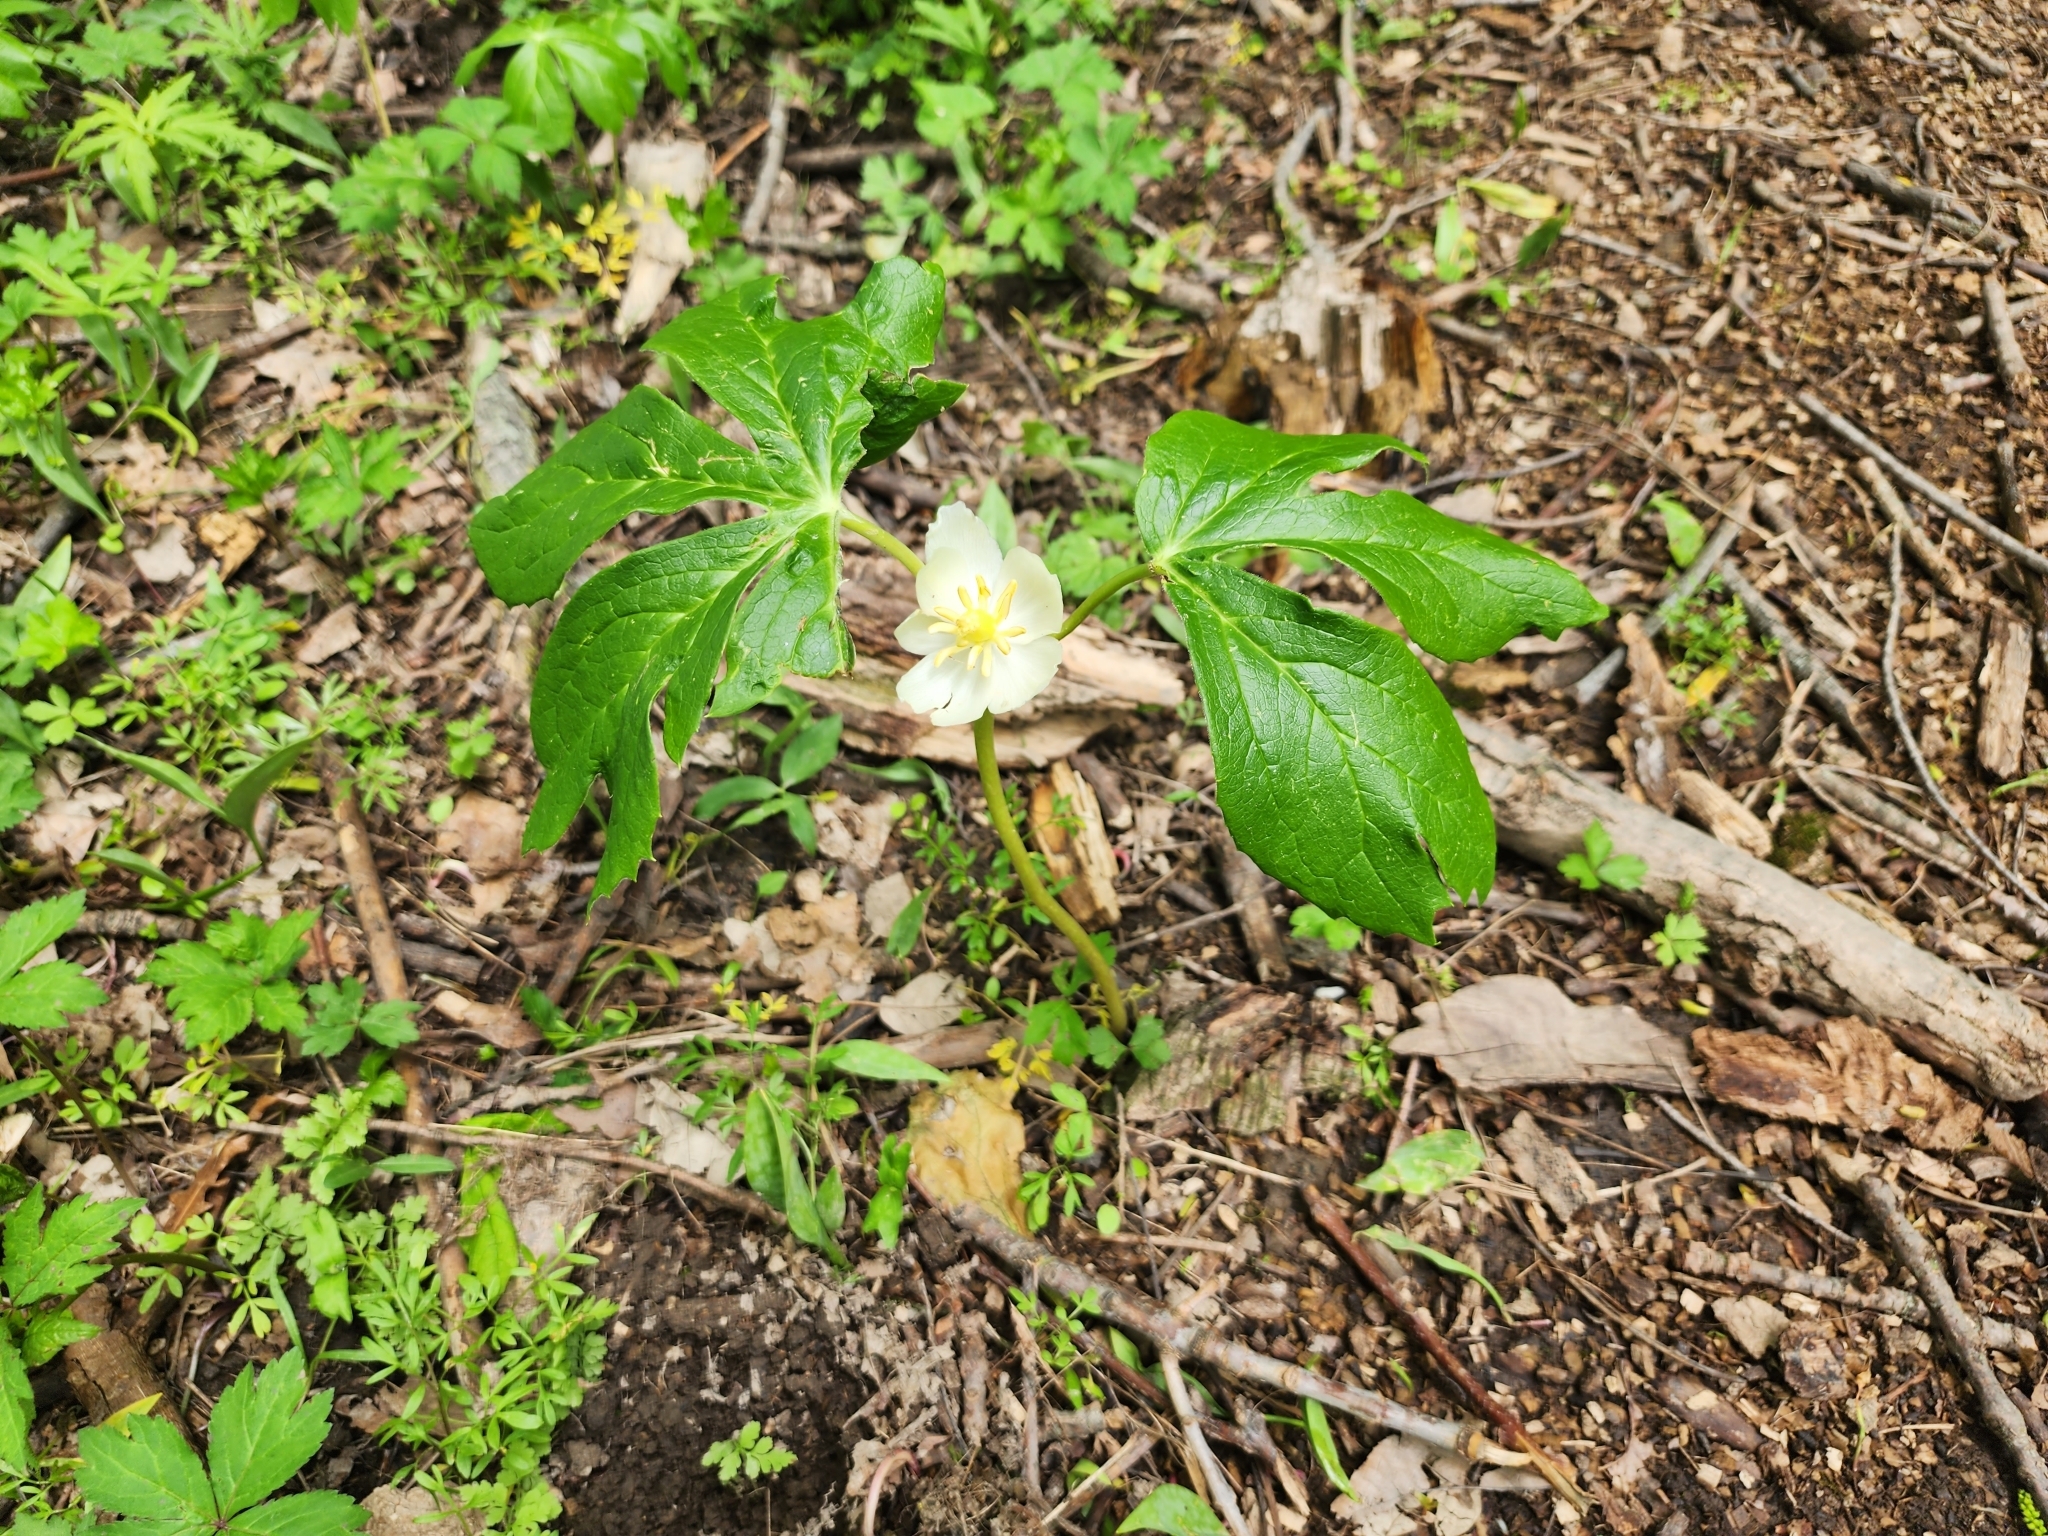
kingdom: Plantae
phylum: Tracheophyta
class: Magnoliopsida
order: Ranunculales
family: Berberidaceae
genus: Podophyllum
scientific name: Podophyllum peltatum
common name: Wild mandrake
